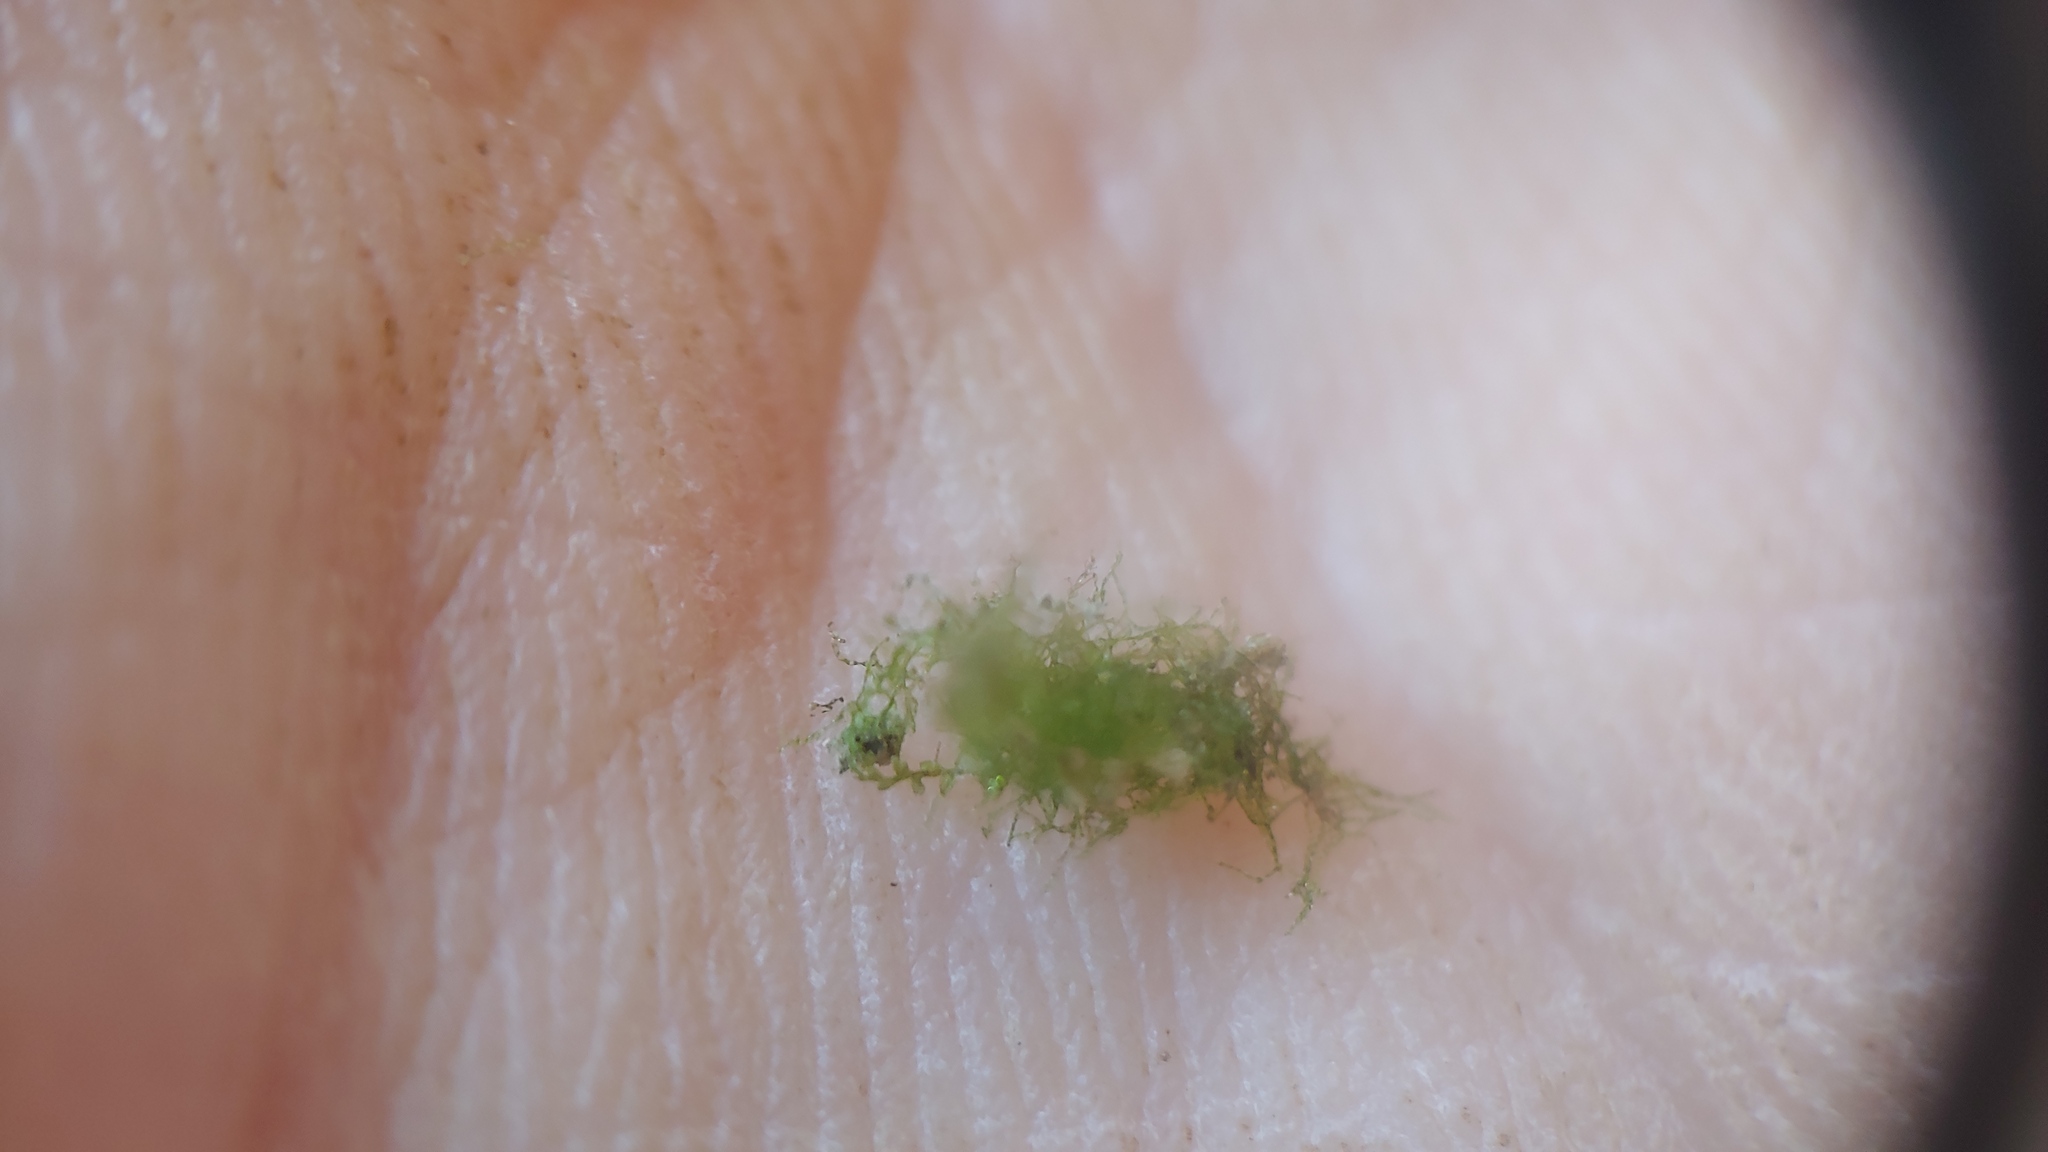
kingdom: Plantae
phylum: Tracheophyta
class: Polypodiopsida
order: Hymenophyllales
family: Hymenophyllaceae
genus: Crepidomanes
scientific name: Crepidomanes intricatum
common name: Weft fern
